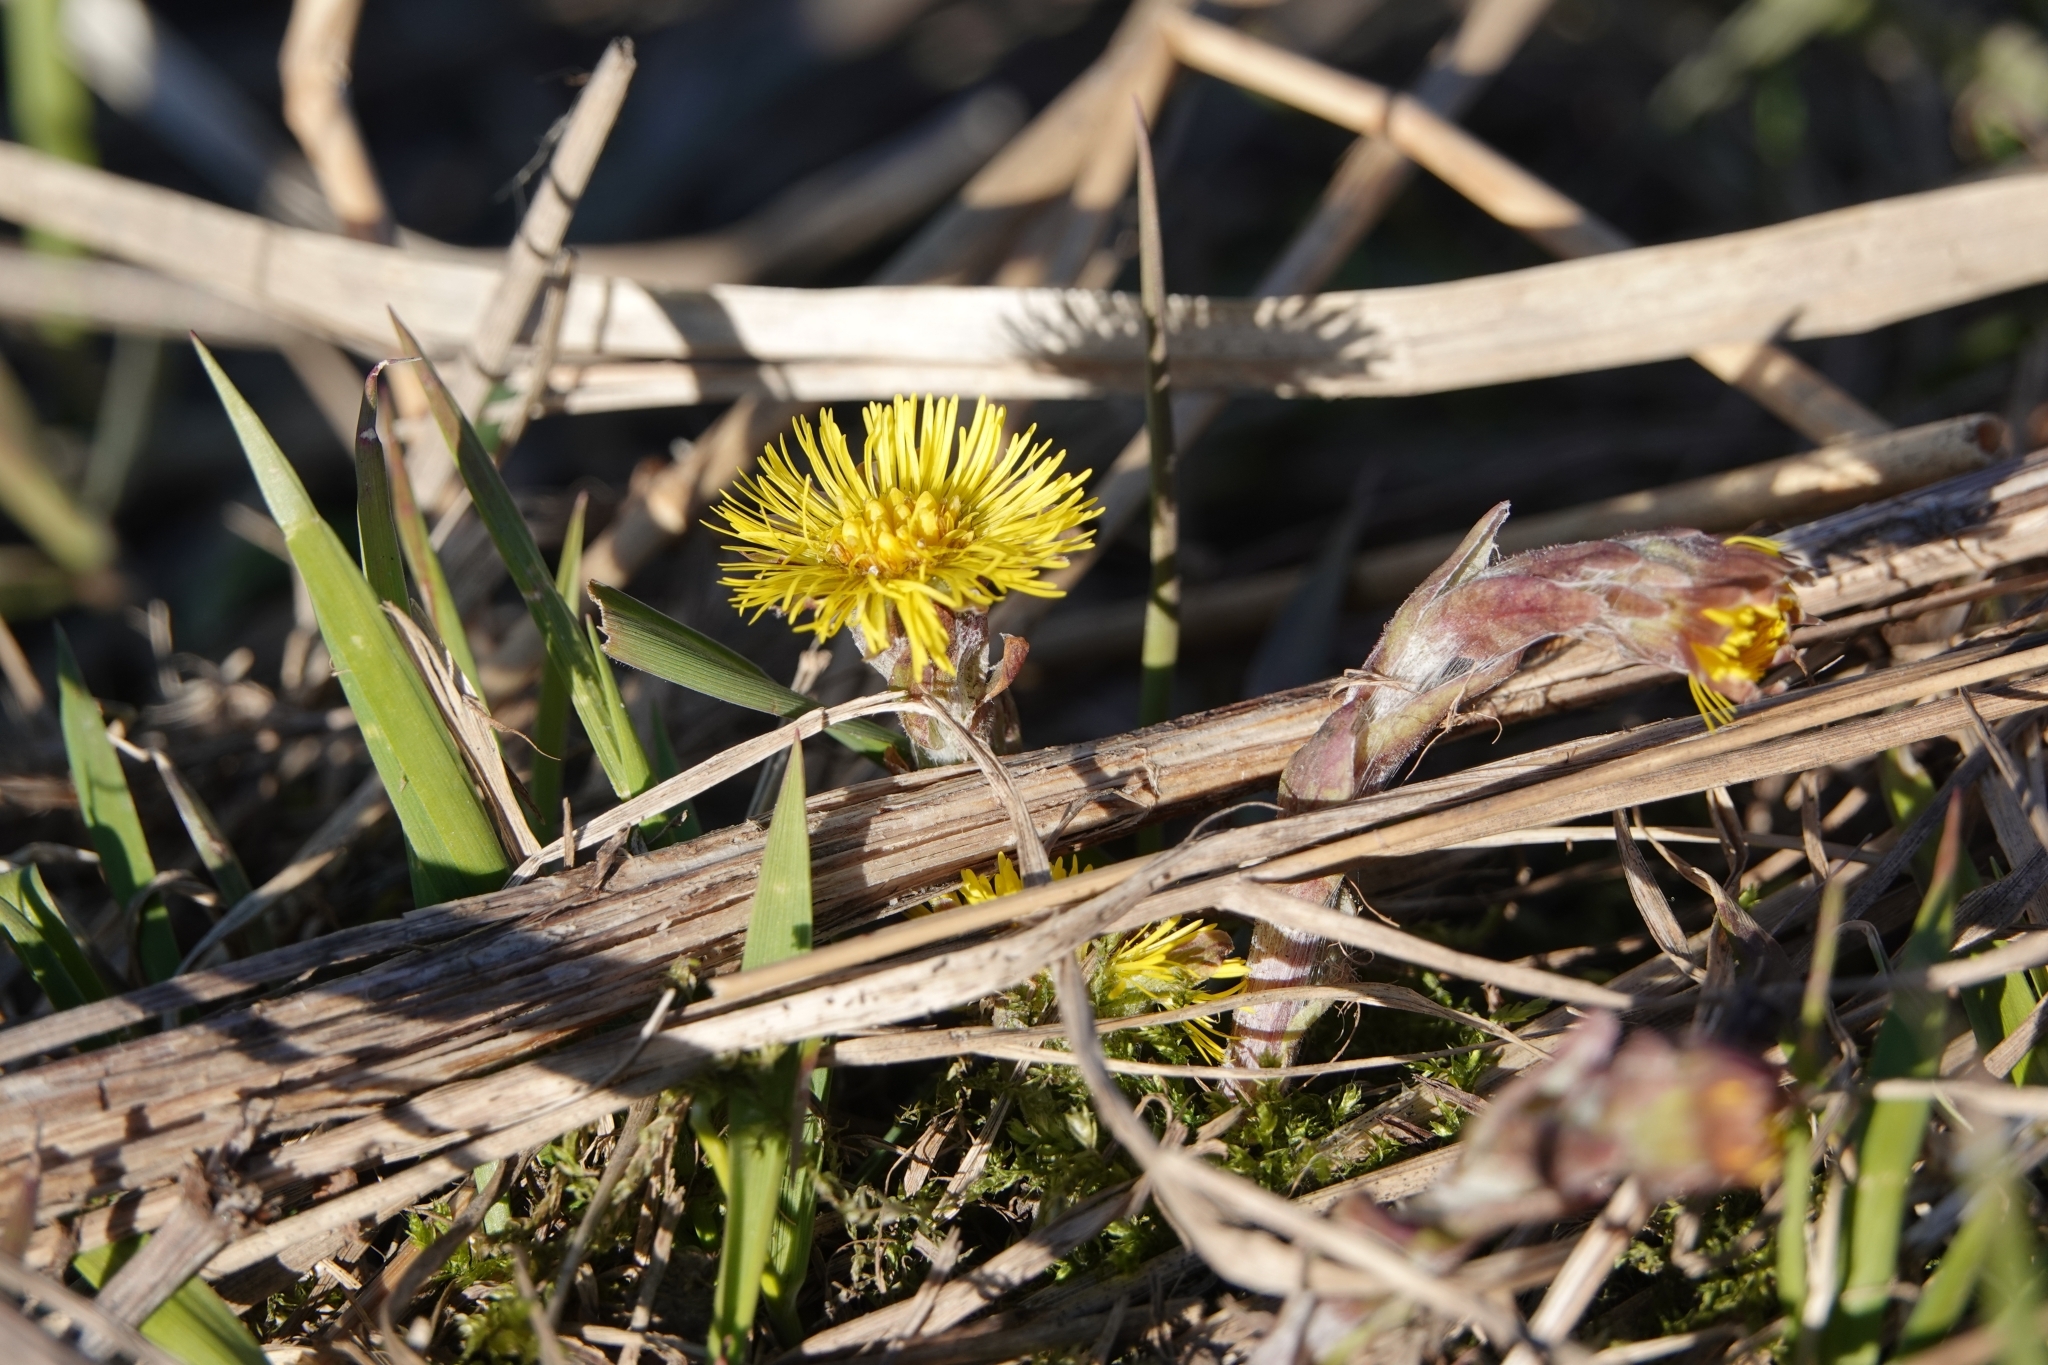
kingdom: Plantae
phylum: Tracheophyta
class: Magnoliopsida
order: Asterales
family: Asteraceae
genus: Tussilago
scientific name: Tussilago farfara
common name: Coltsfoot
